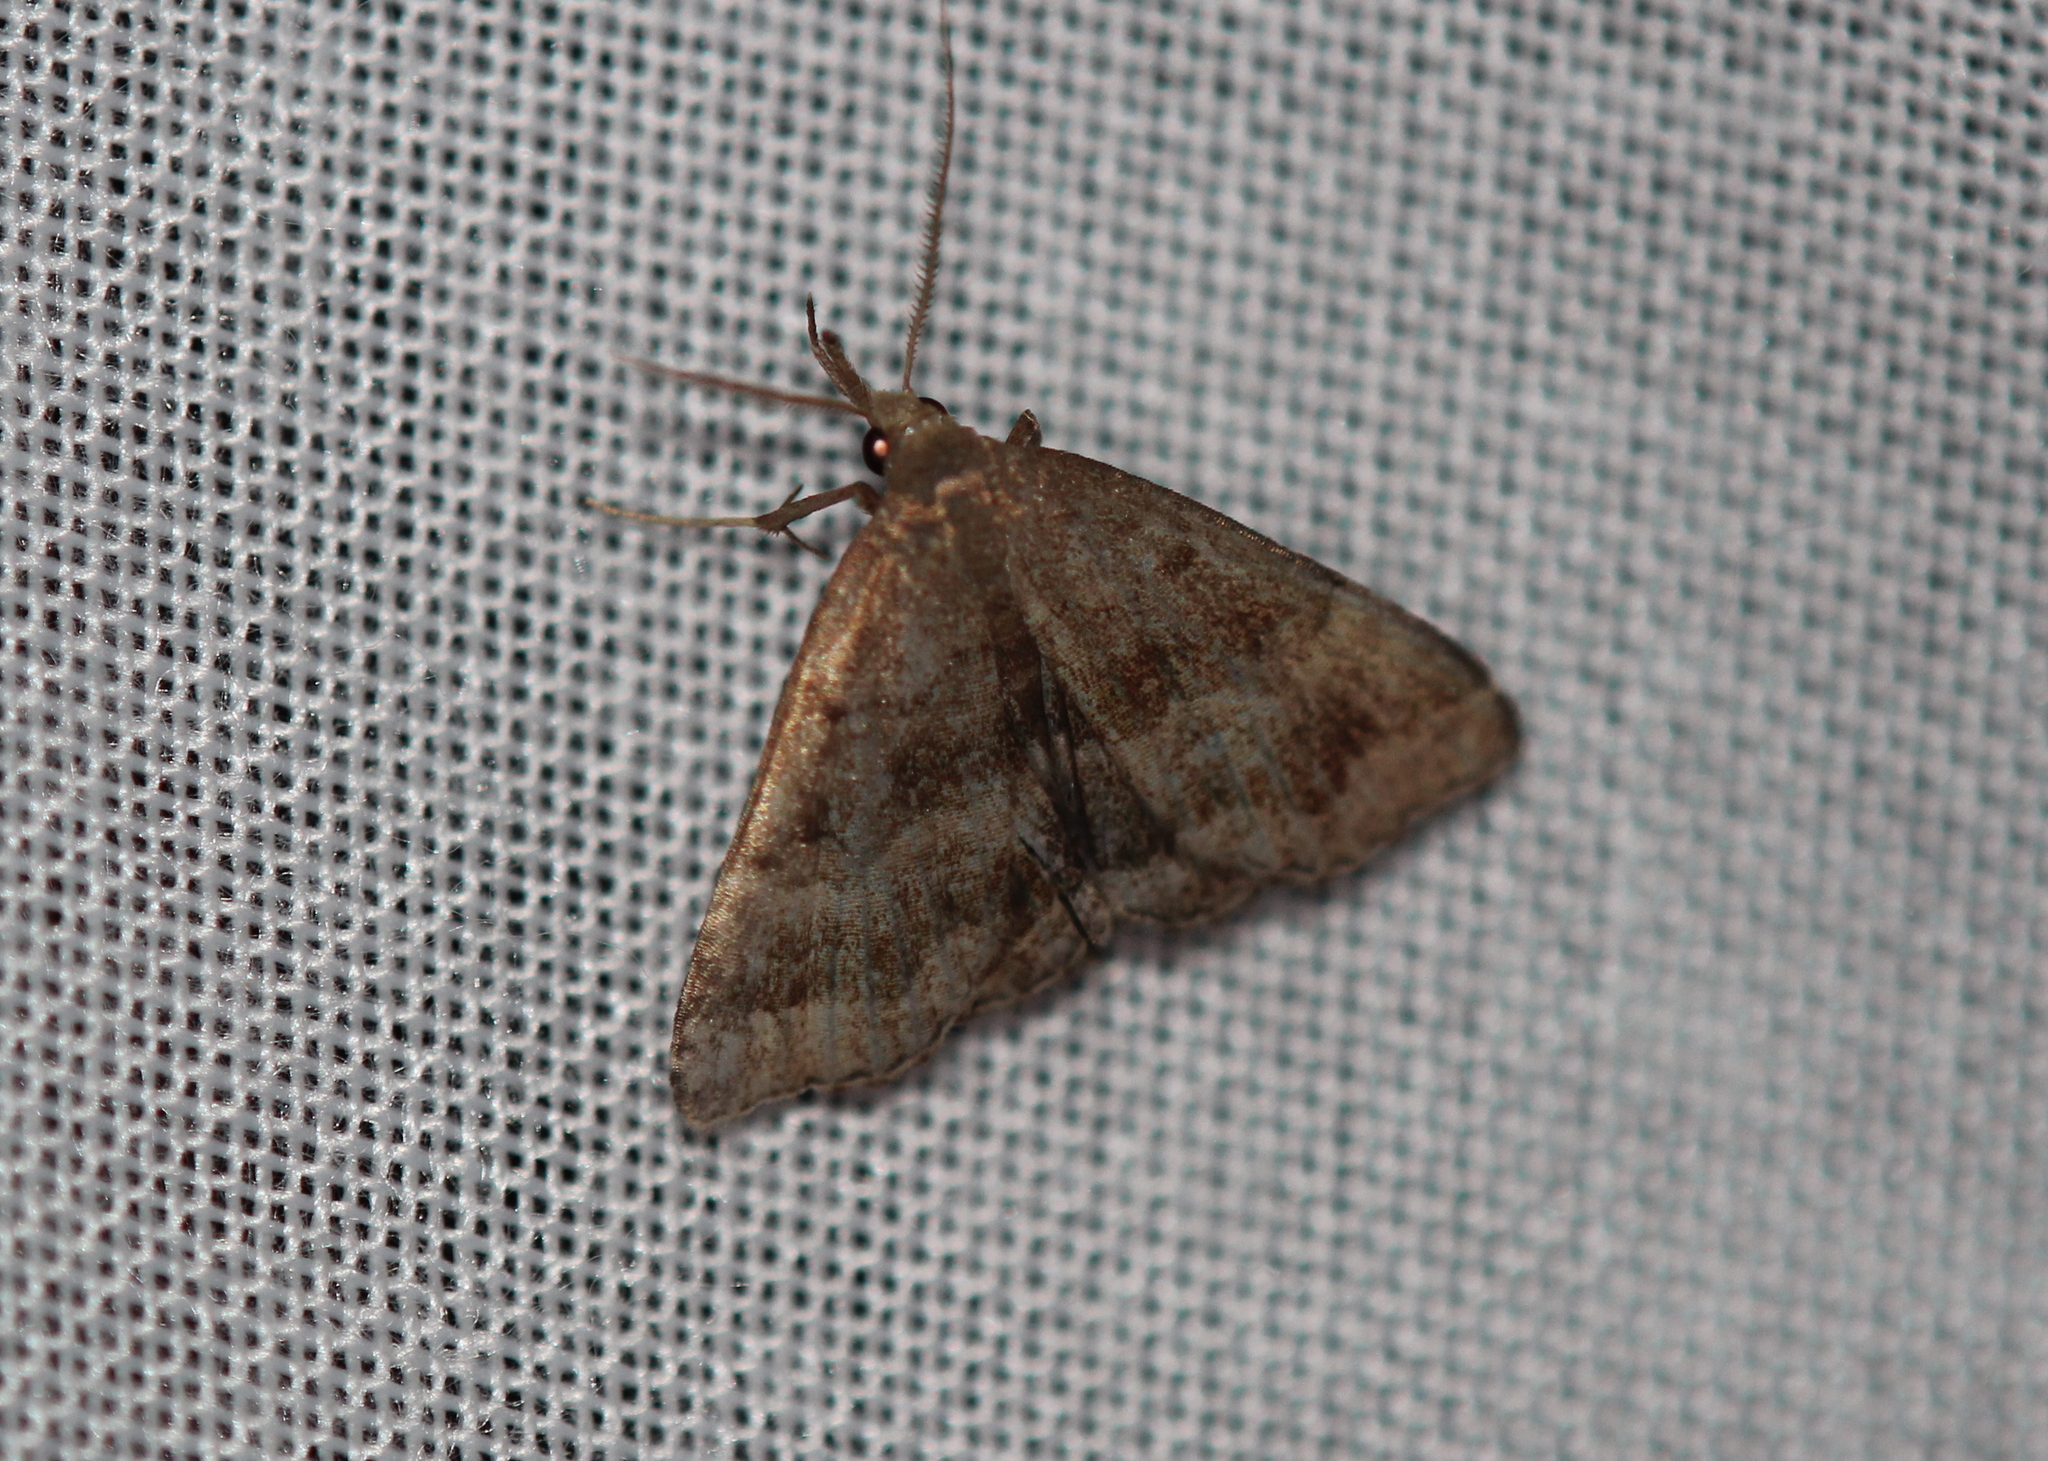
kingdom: Animalia
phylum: Arthropoda
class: Insecta
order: Lepidoptera
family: Erebidae
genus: Phalaenostola
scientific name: Phalaenostola metonalis
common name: Pale phalaenostola moth
